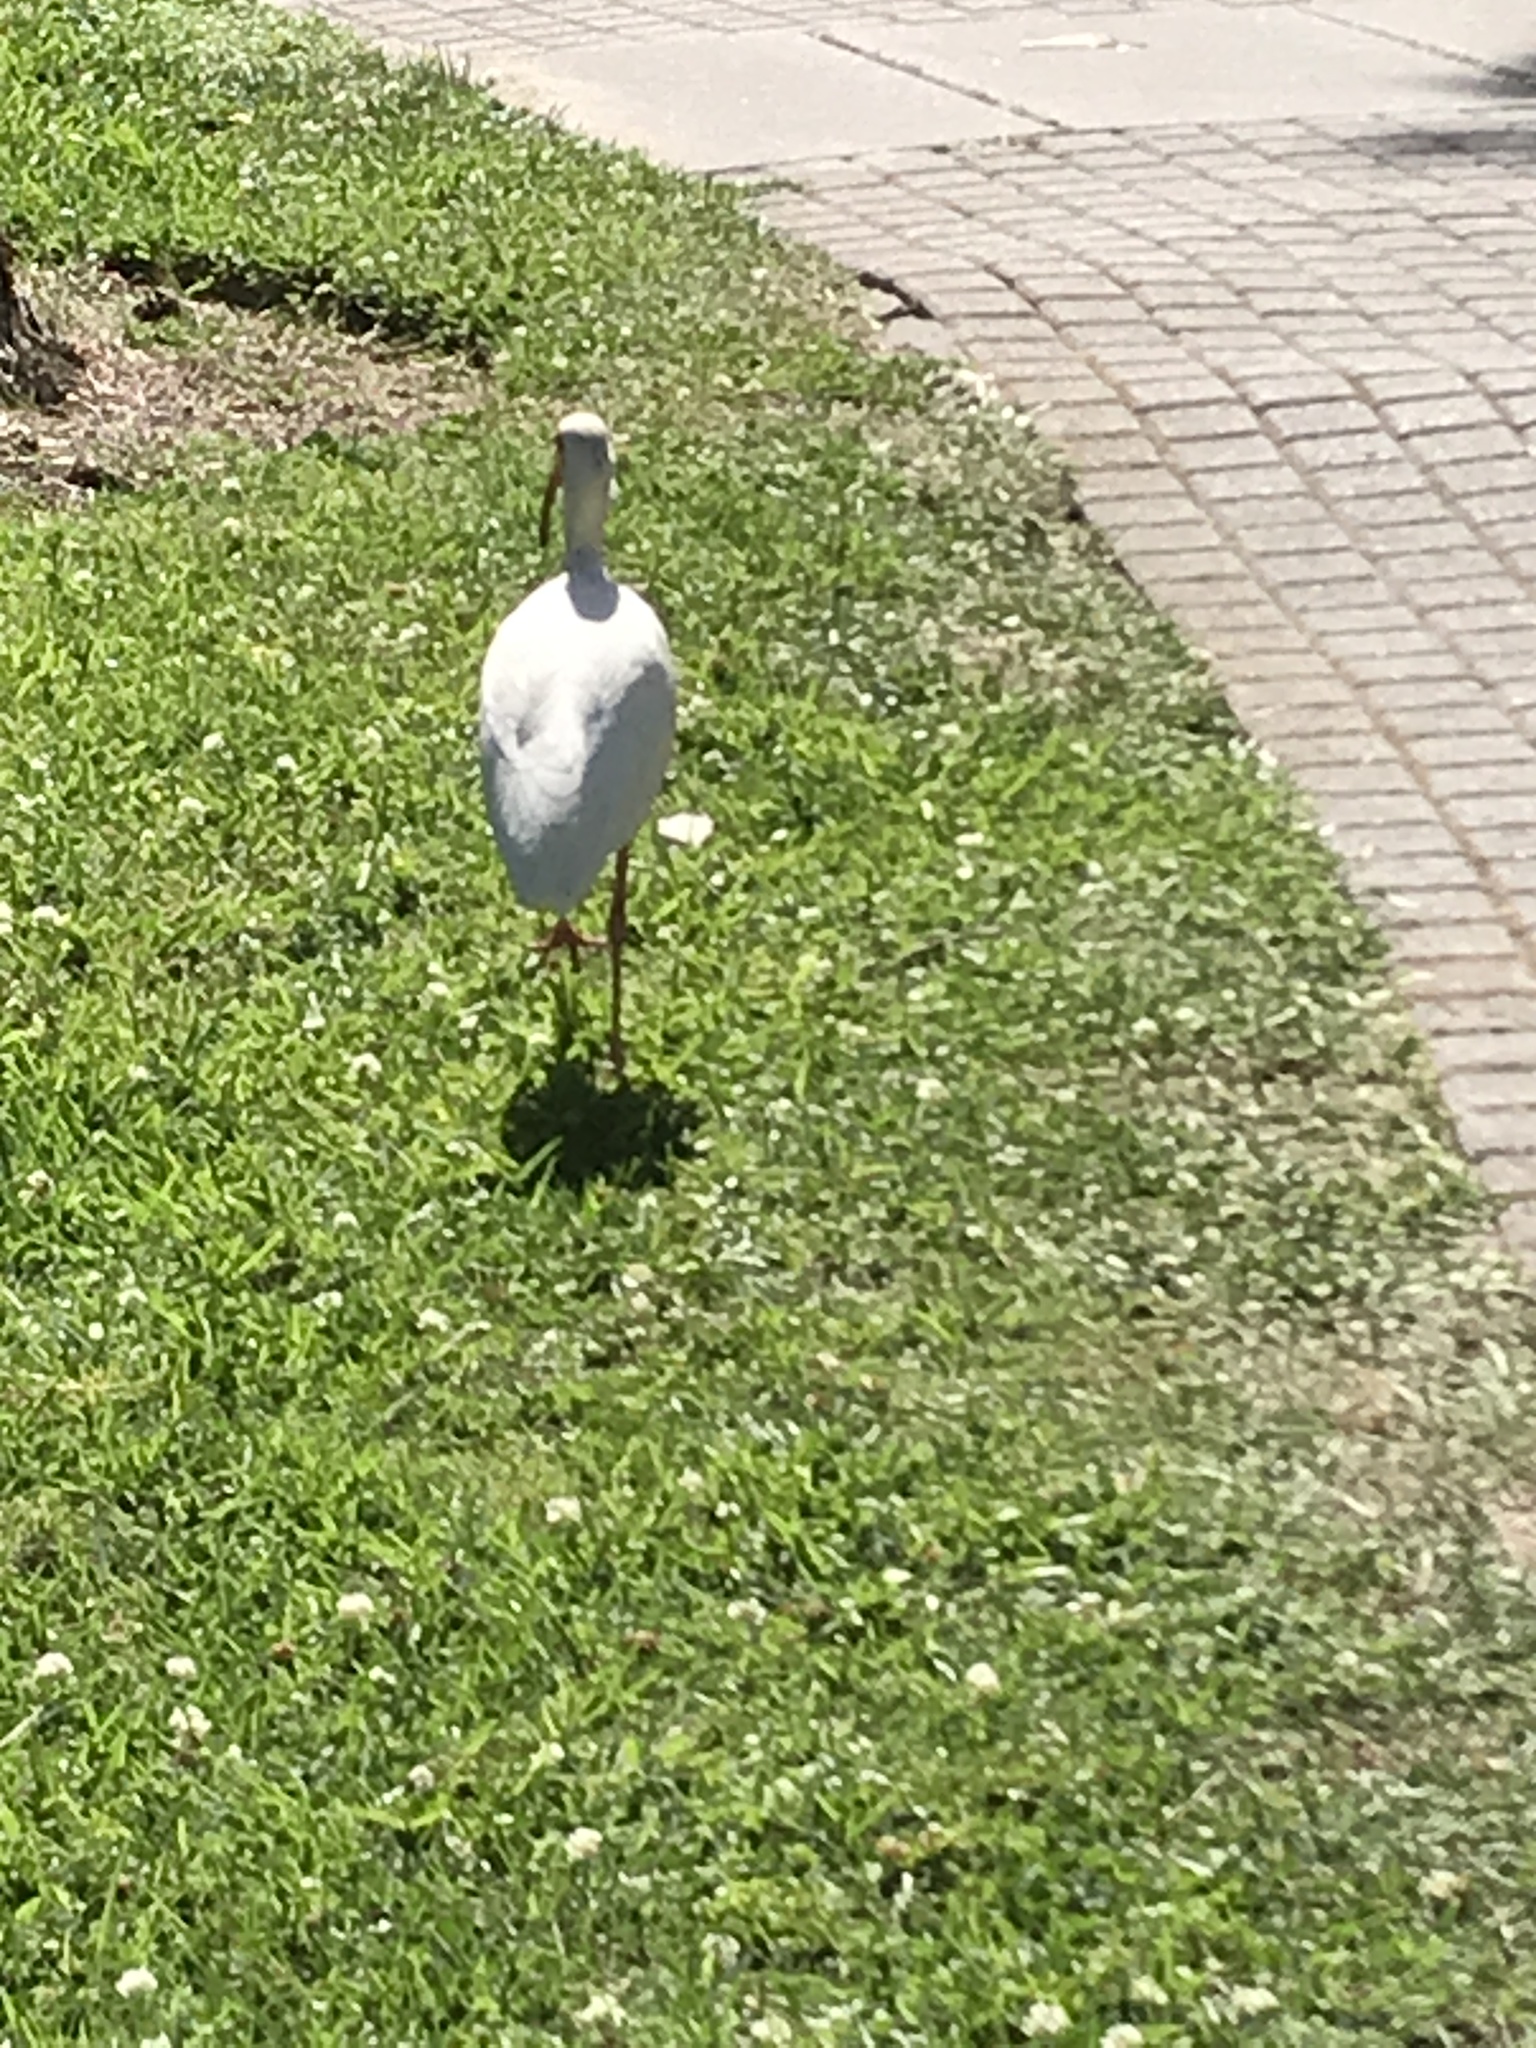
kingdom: Animalia
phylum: Chordata
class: Aves
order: Pelecaniformes
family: Threskiornithidae
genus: Eudocimus
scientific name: Eudocimus albus
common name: White ibis
